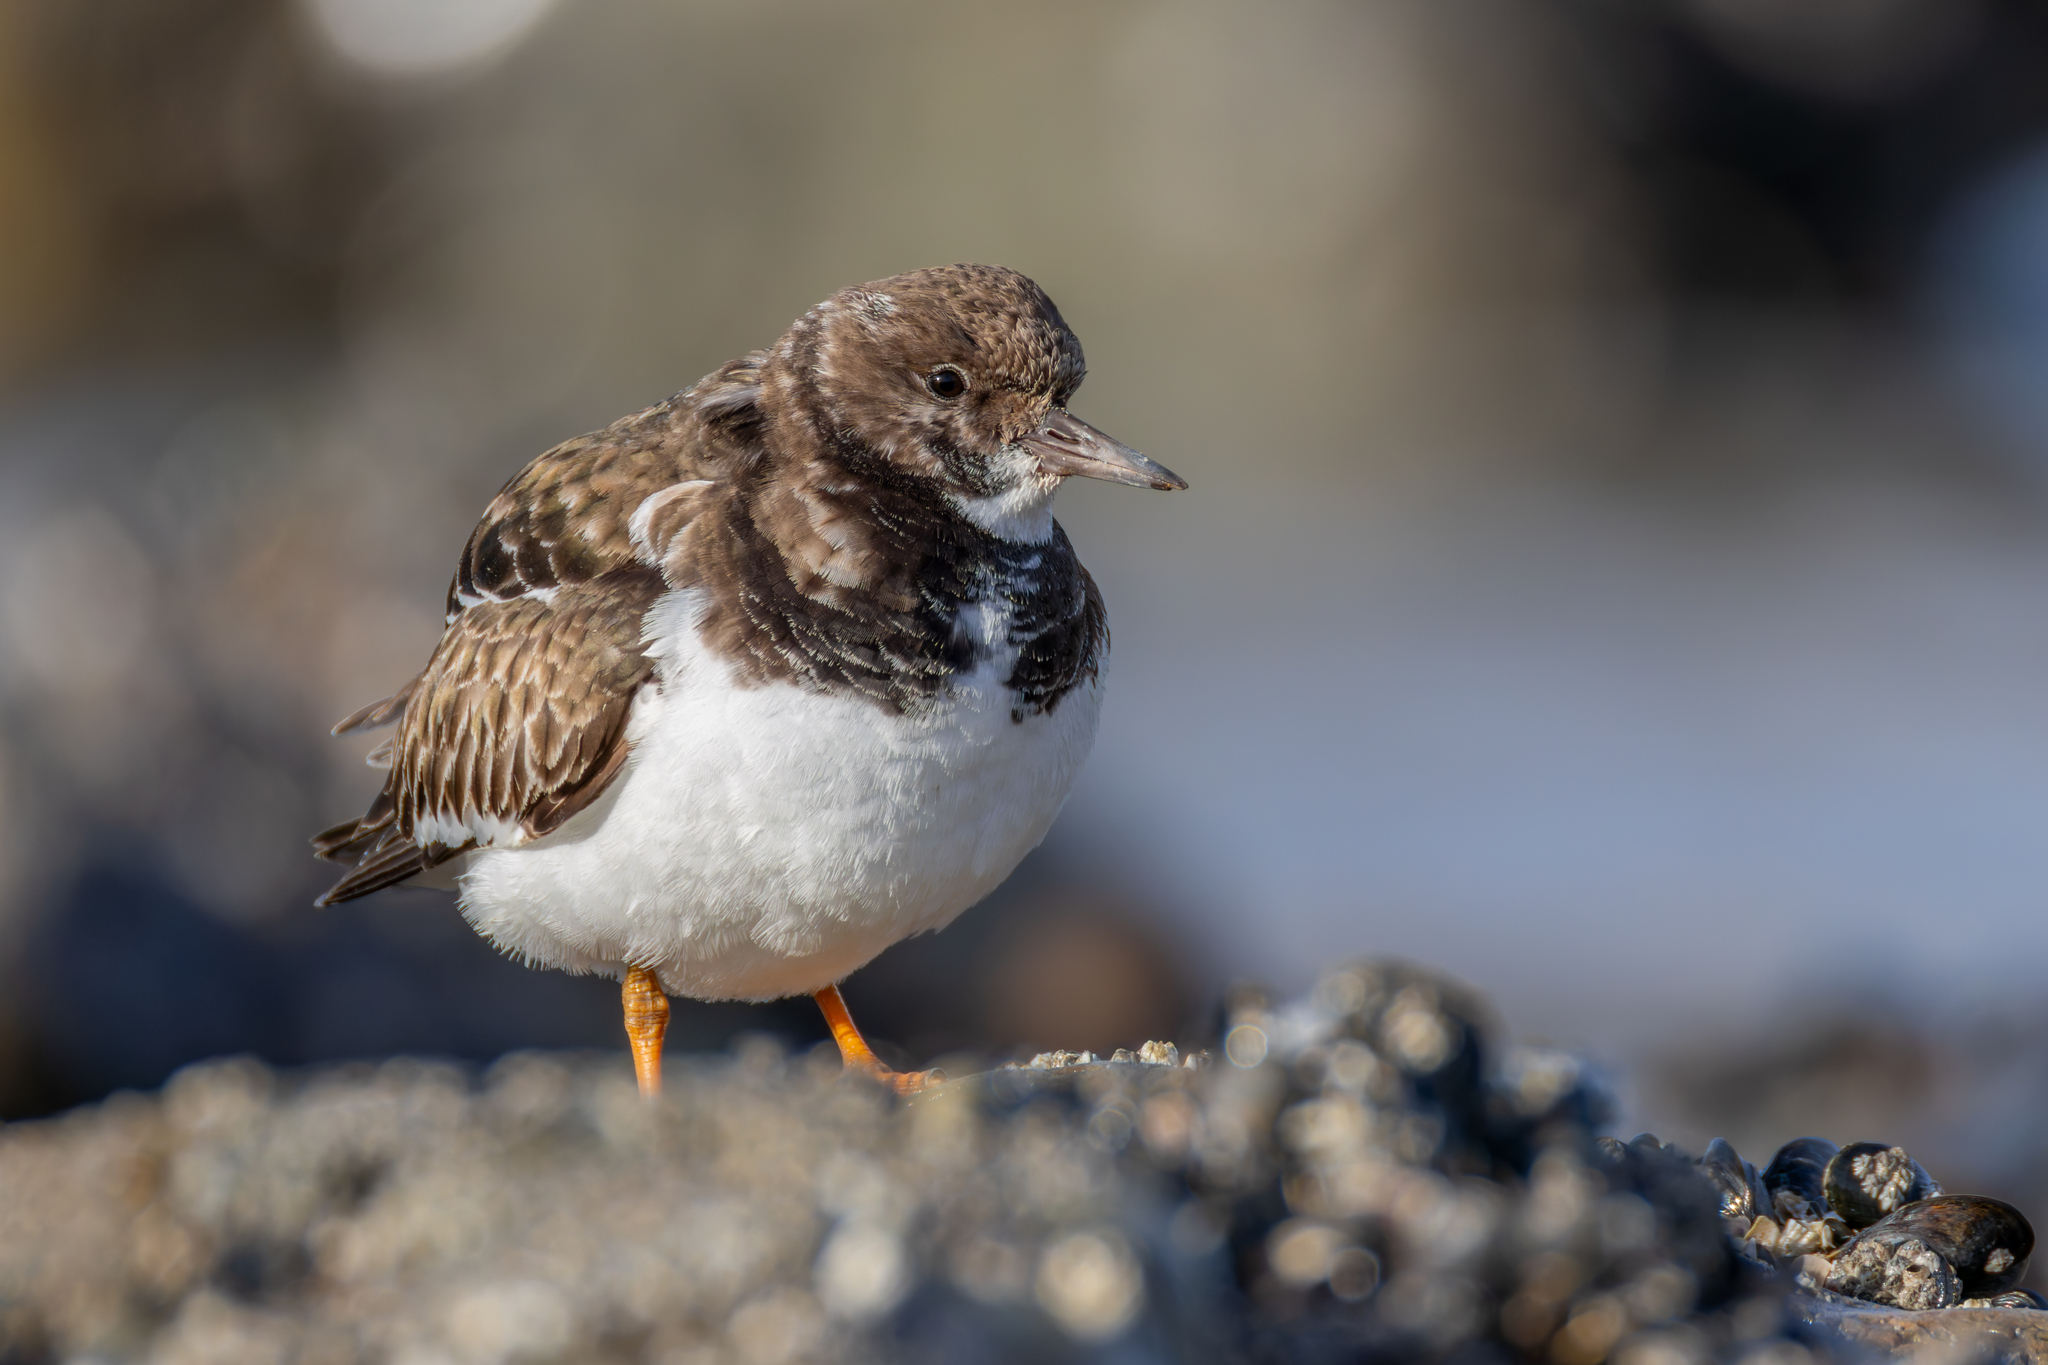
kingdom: Animalia
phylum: Chordata
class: Aves
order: Charadriiformes
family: Scolopacidae
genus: Arenaria
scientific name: Arenaria interpres
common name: Ruddy turnstone
